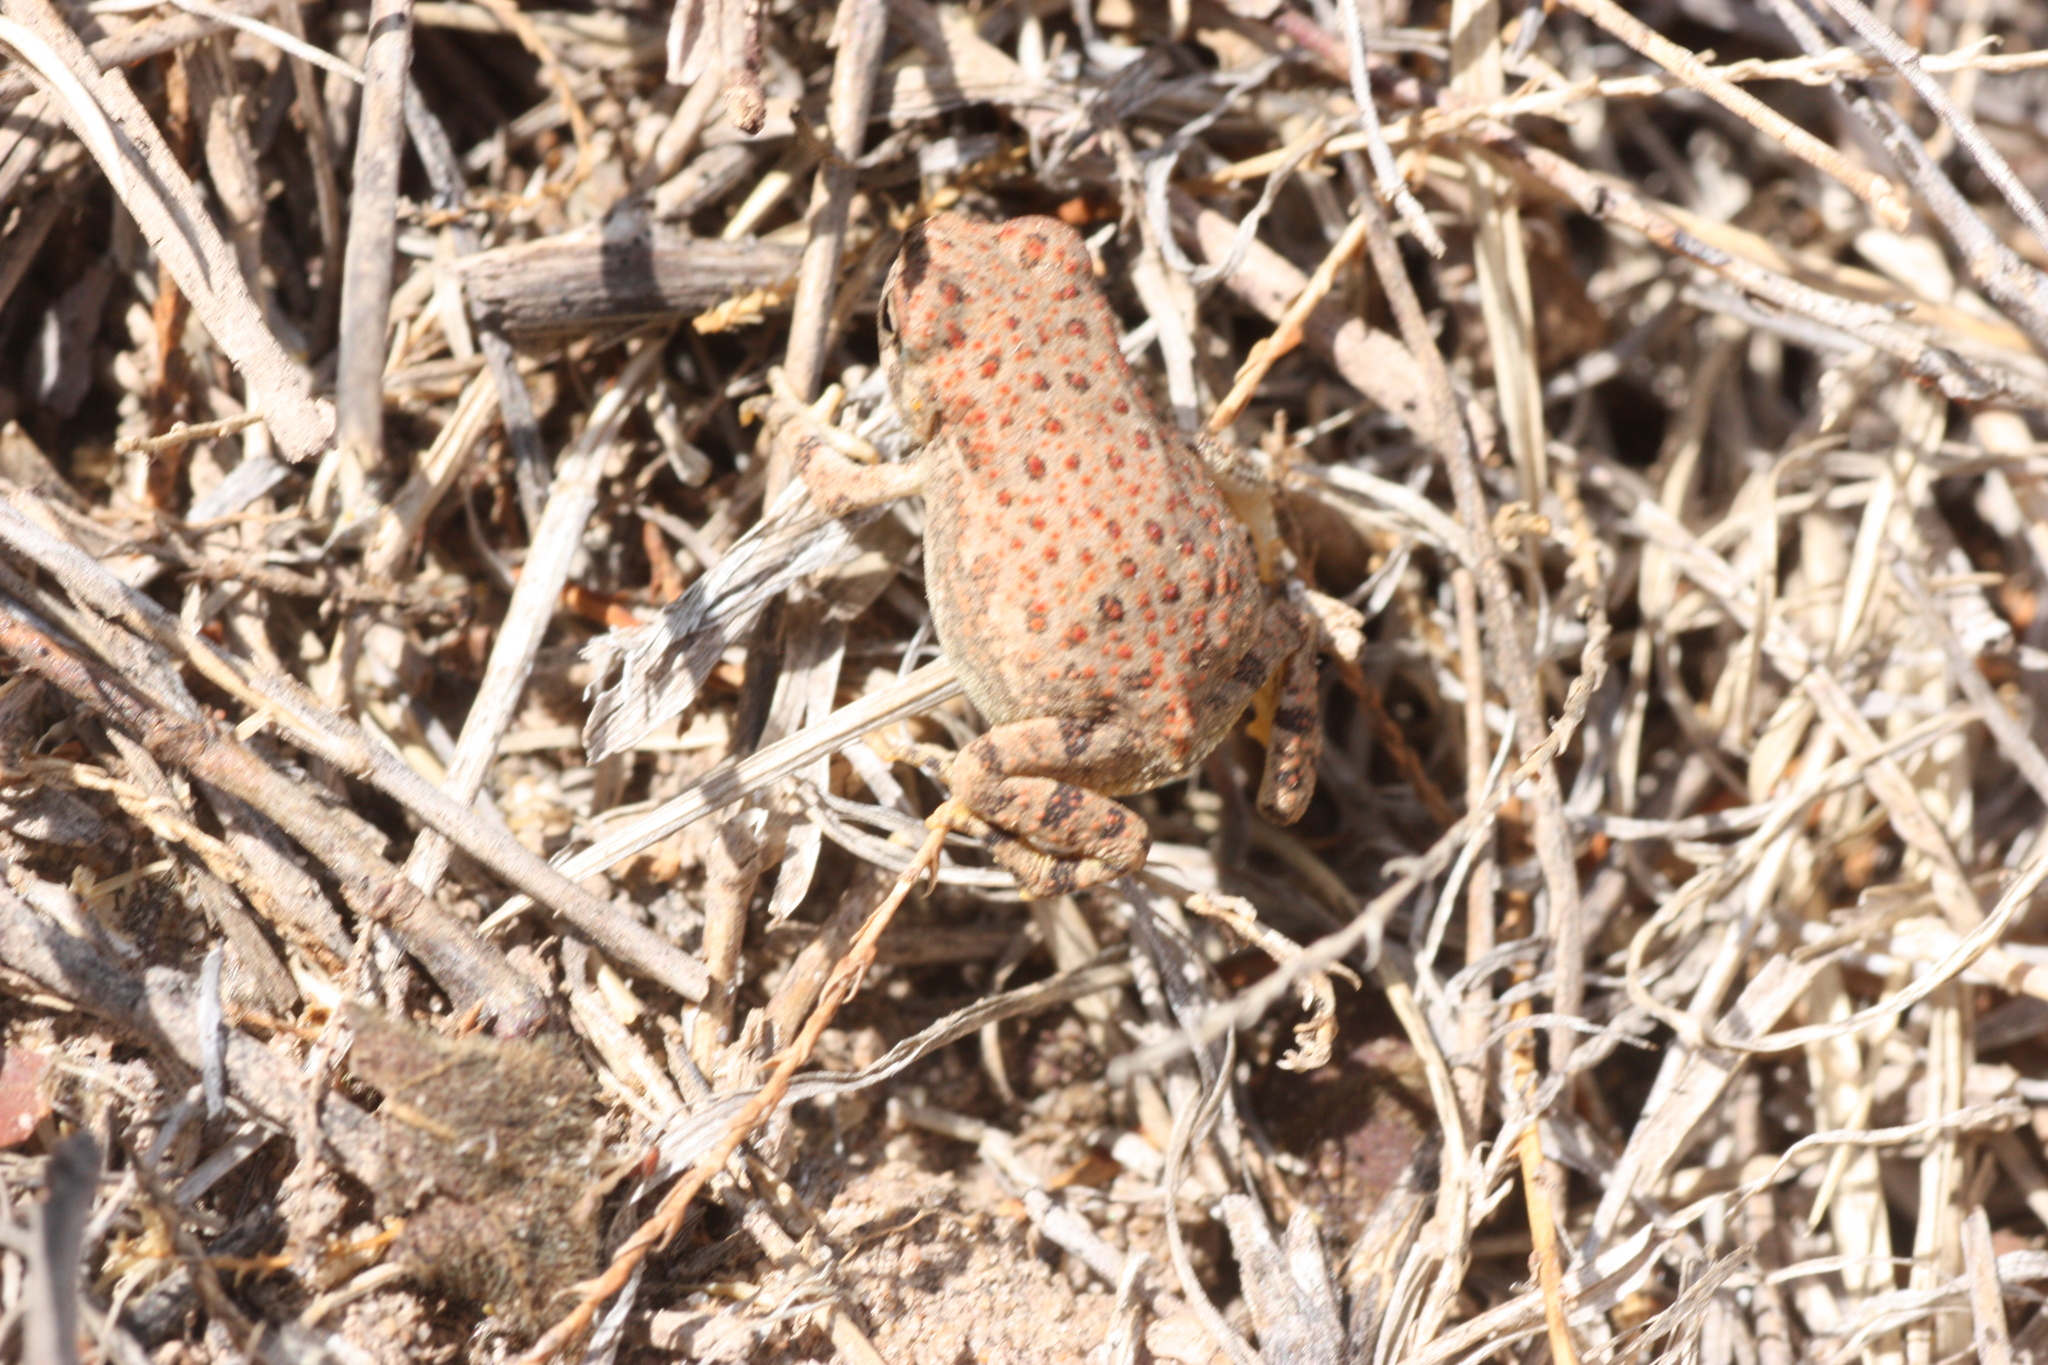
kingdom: Animalia
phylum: Chordata
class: Amphibia
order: Anura
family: Bufonidae
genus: Anaxyrus
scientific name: Anaxyrus punctatus
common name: Red-spotted toad
